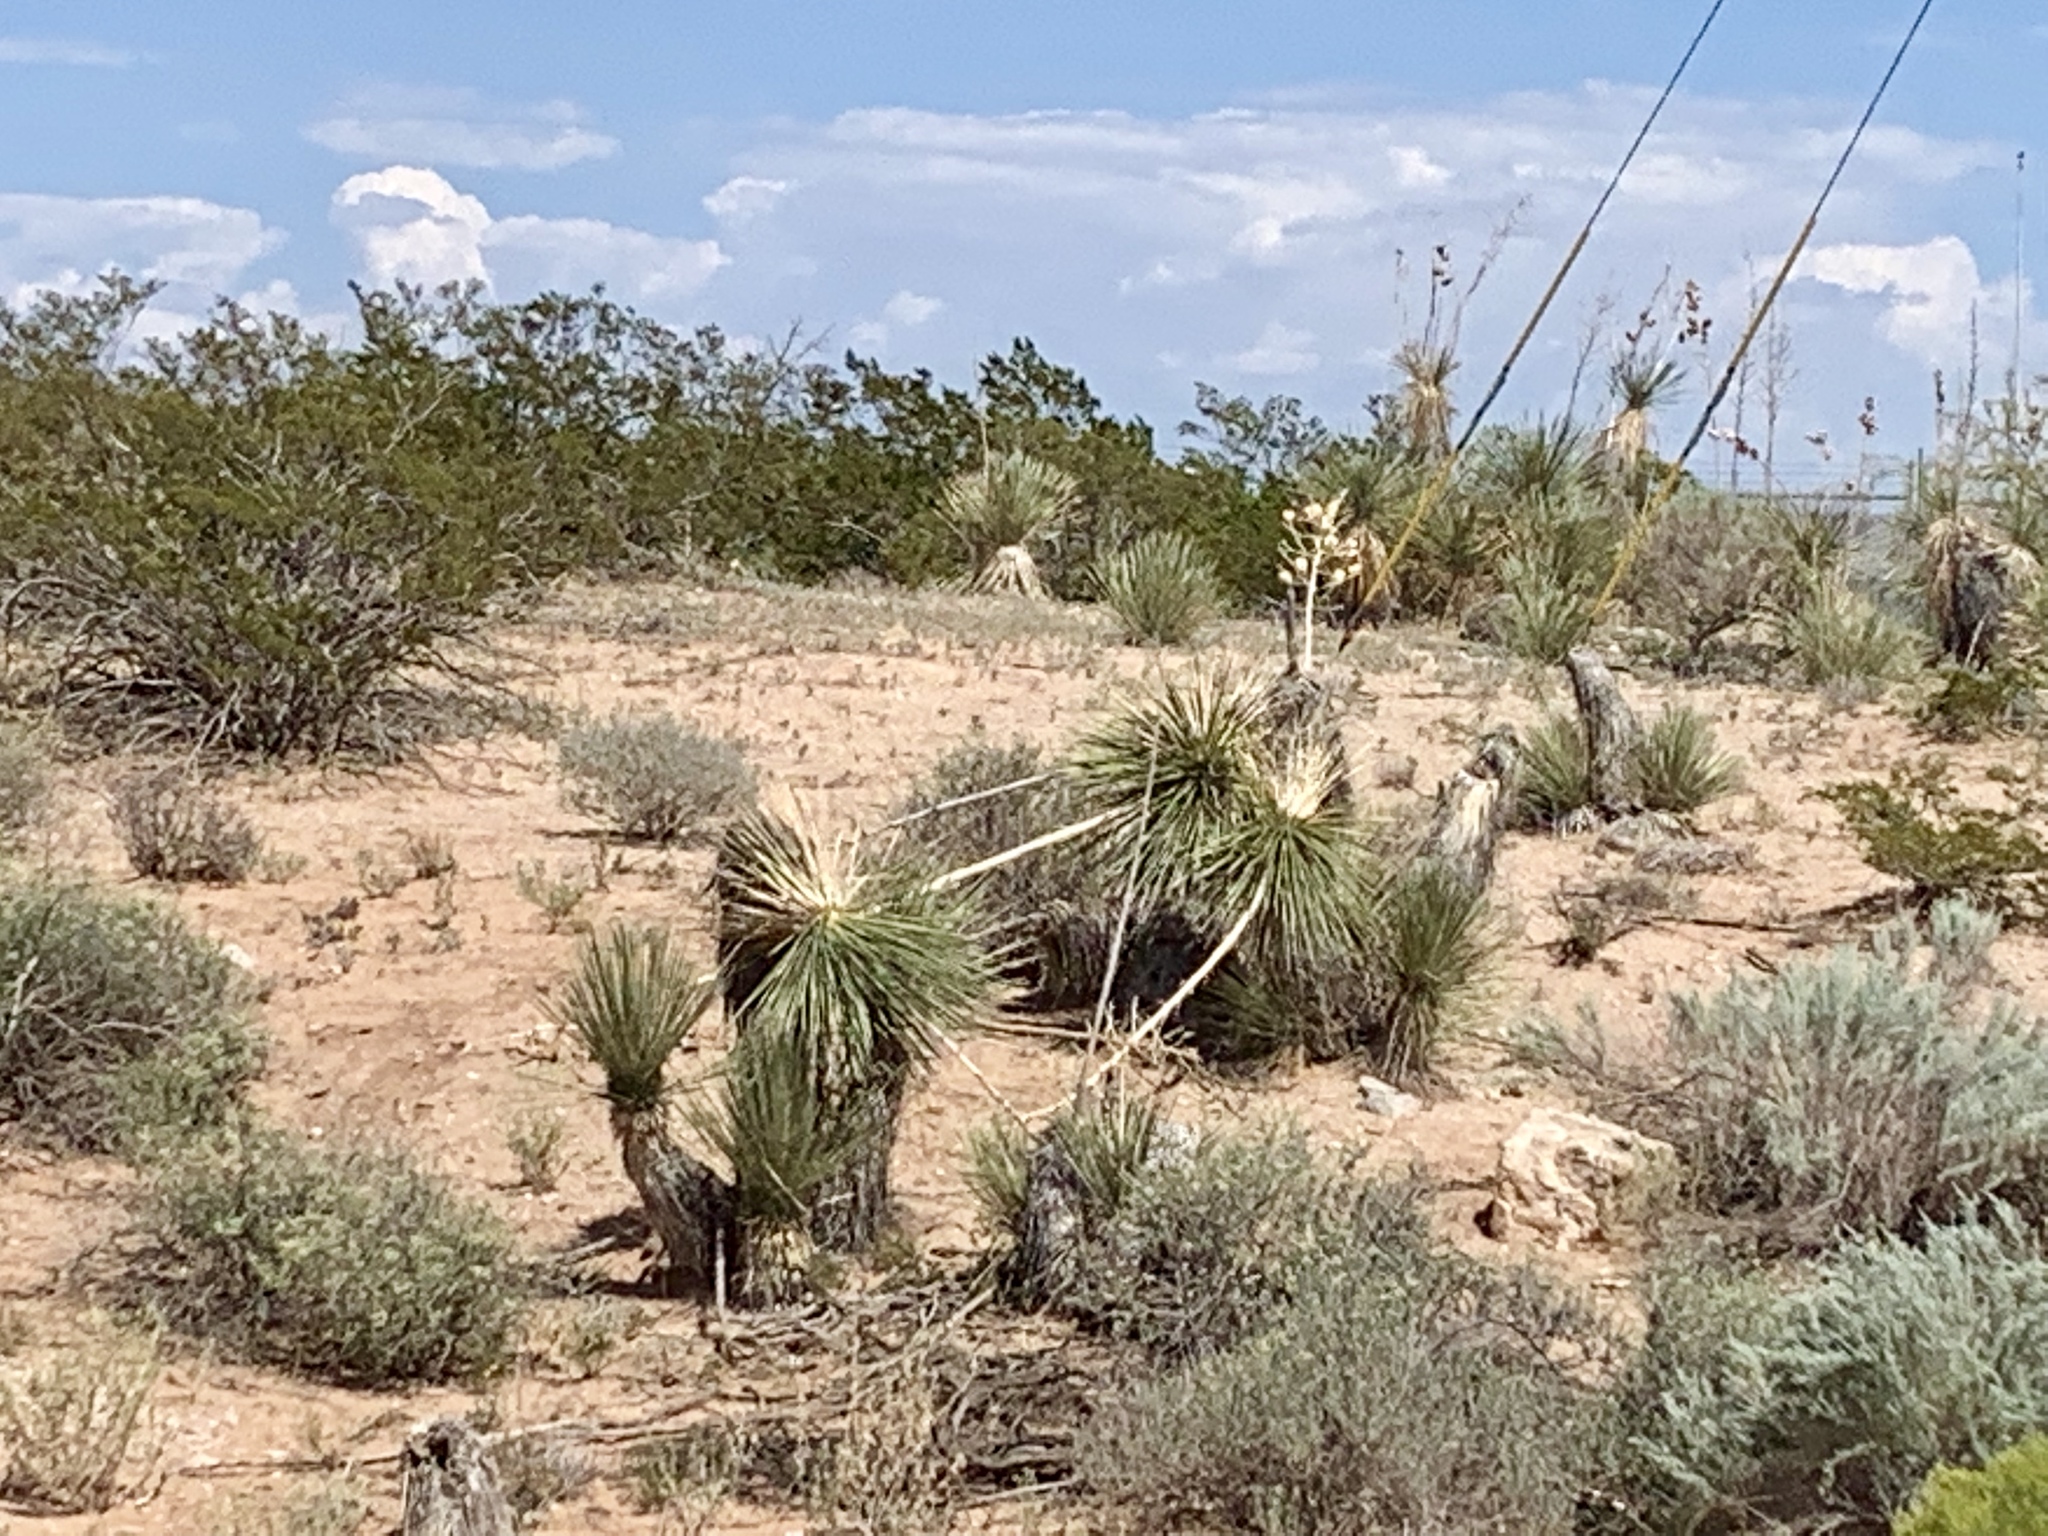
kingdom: Plantae
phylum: Tracheophyta
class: Liliopsida
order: Asparagales
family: Asparagaceae
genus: Yucca
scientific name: Yucca elata
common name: Palmella
